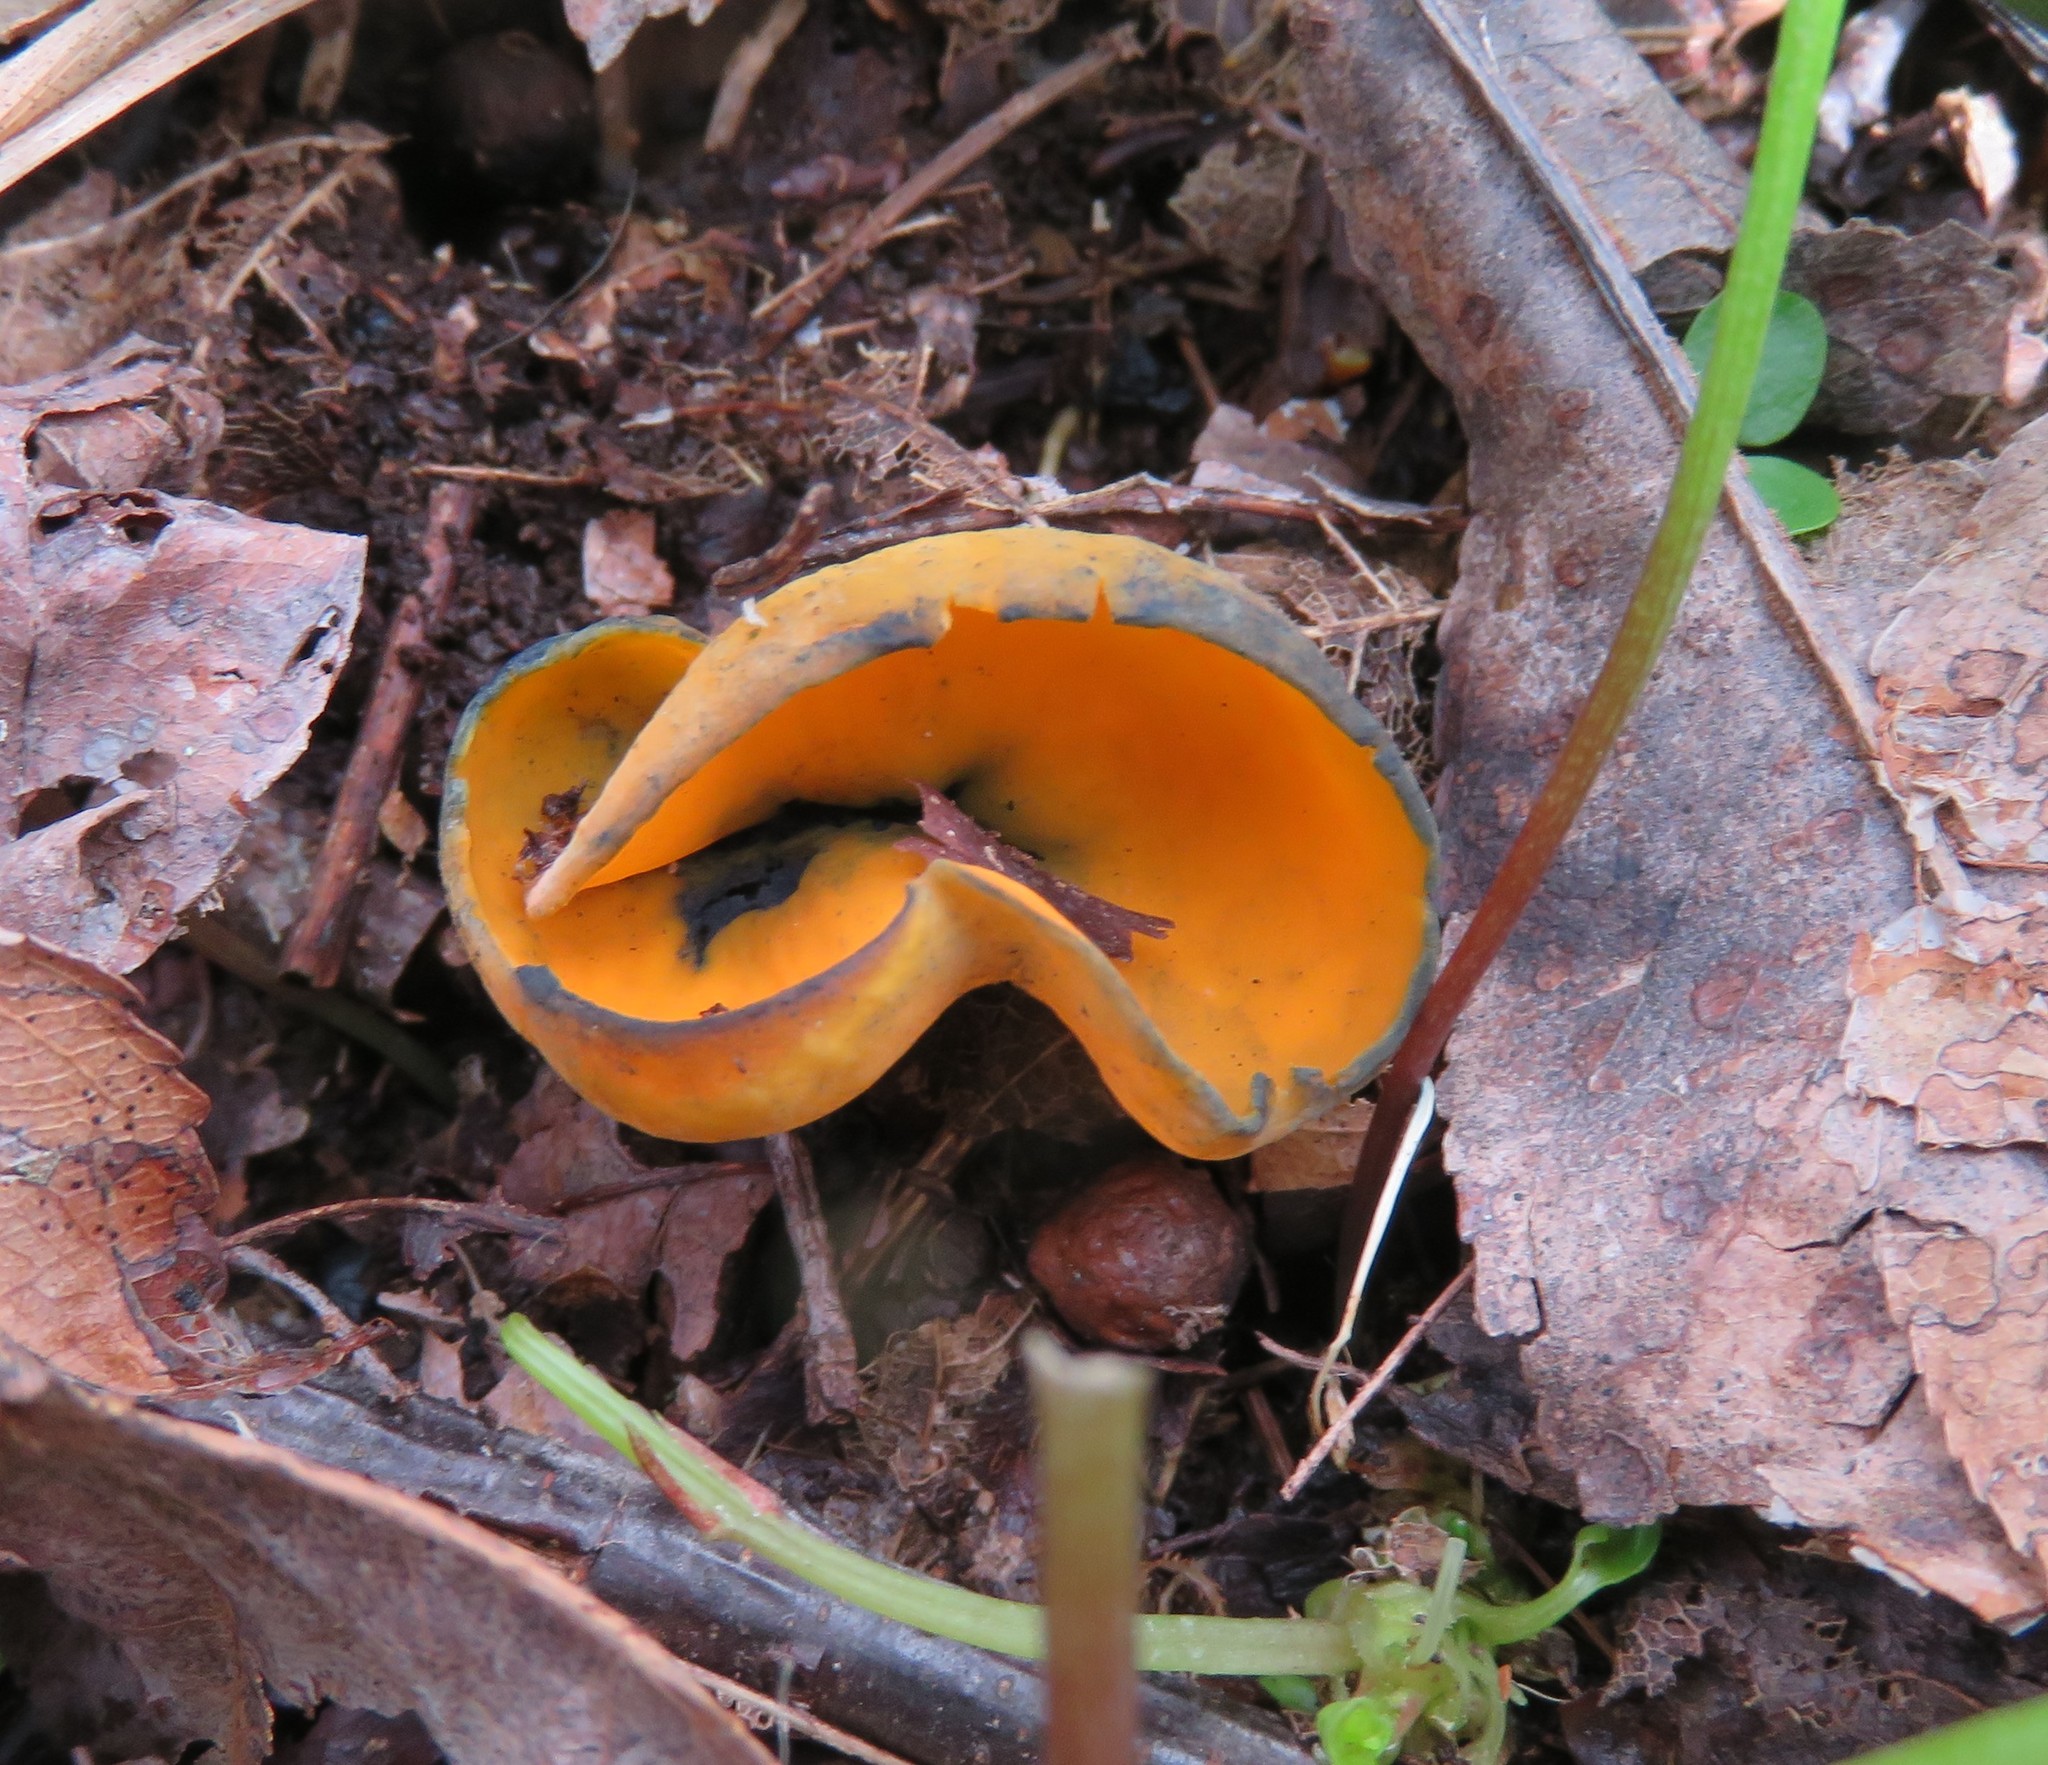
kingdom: Fungi
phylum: Ascomycota
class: Pezizomycetes
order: Pezizales
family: Caloscyphaceae
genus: Caloscypha
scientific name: Caloscypha fulgens
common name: Golden cup
